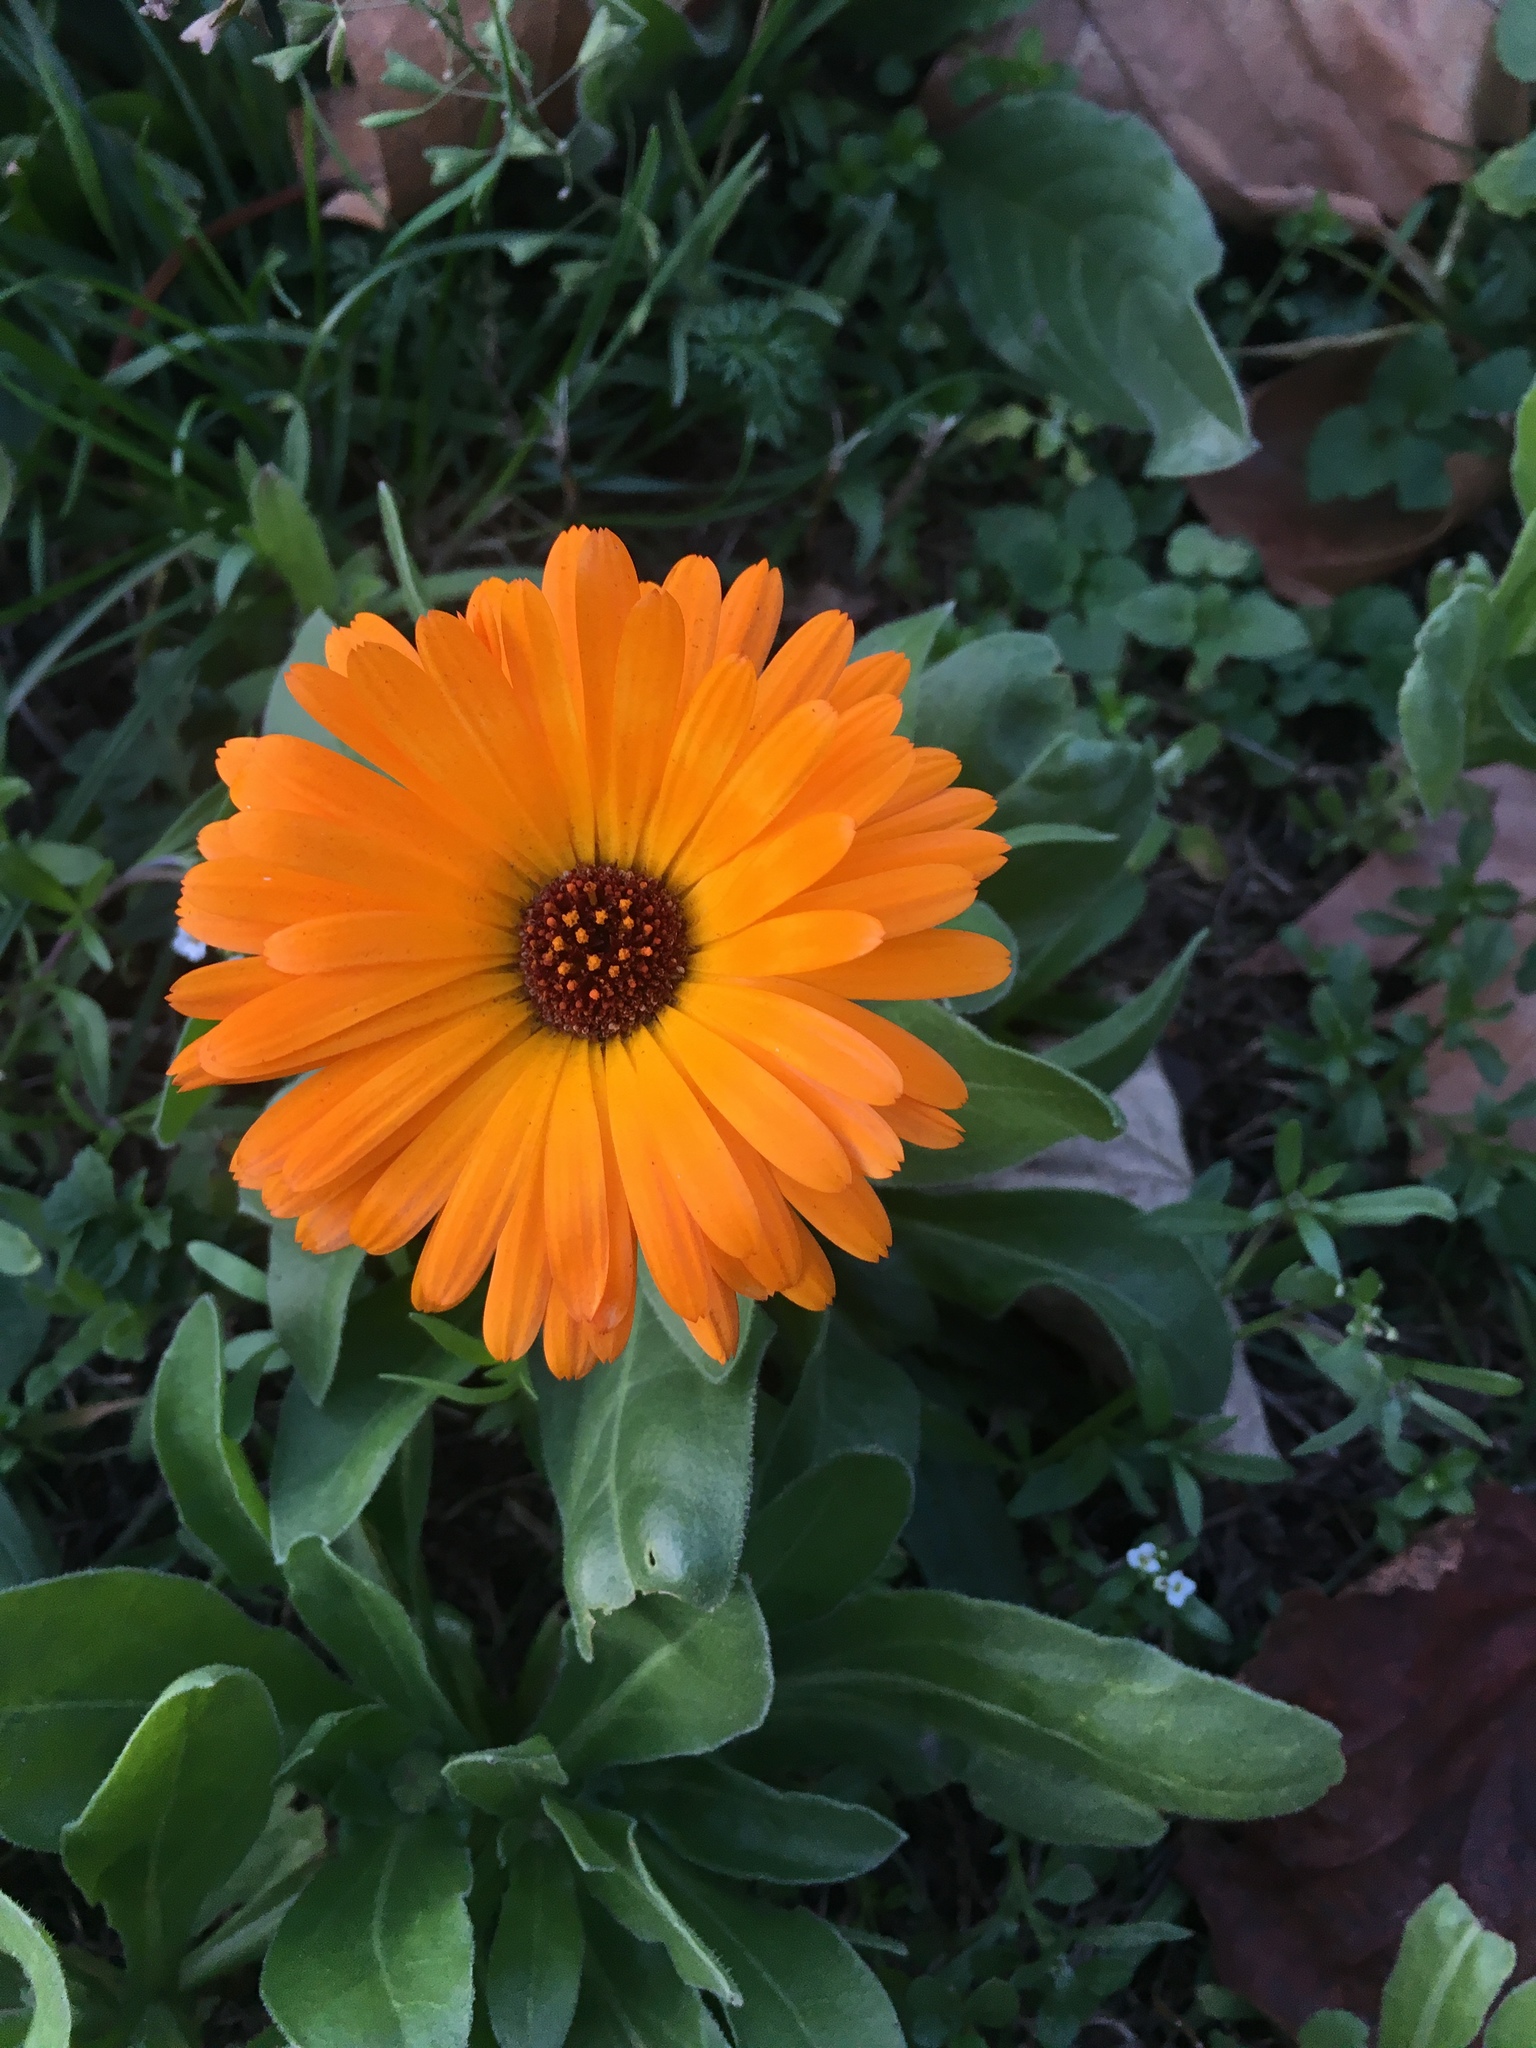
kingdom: Plantae
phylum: Tracheophyta
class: Magnoliopsida
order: Asterales
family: Asteraceae
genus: Calendula
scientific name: Calendula officinalis
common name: Pot marigold
